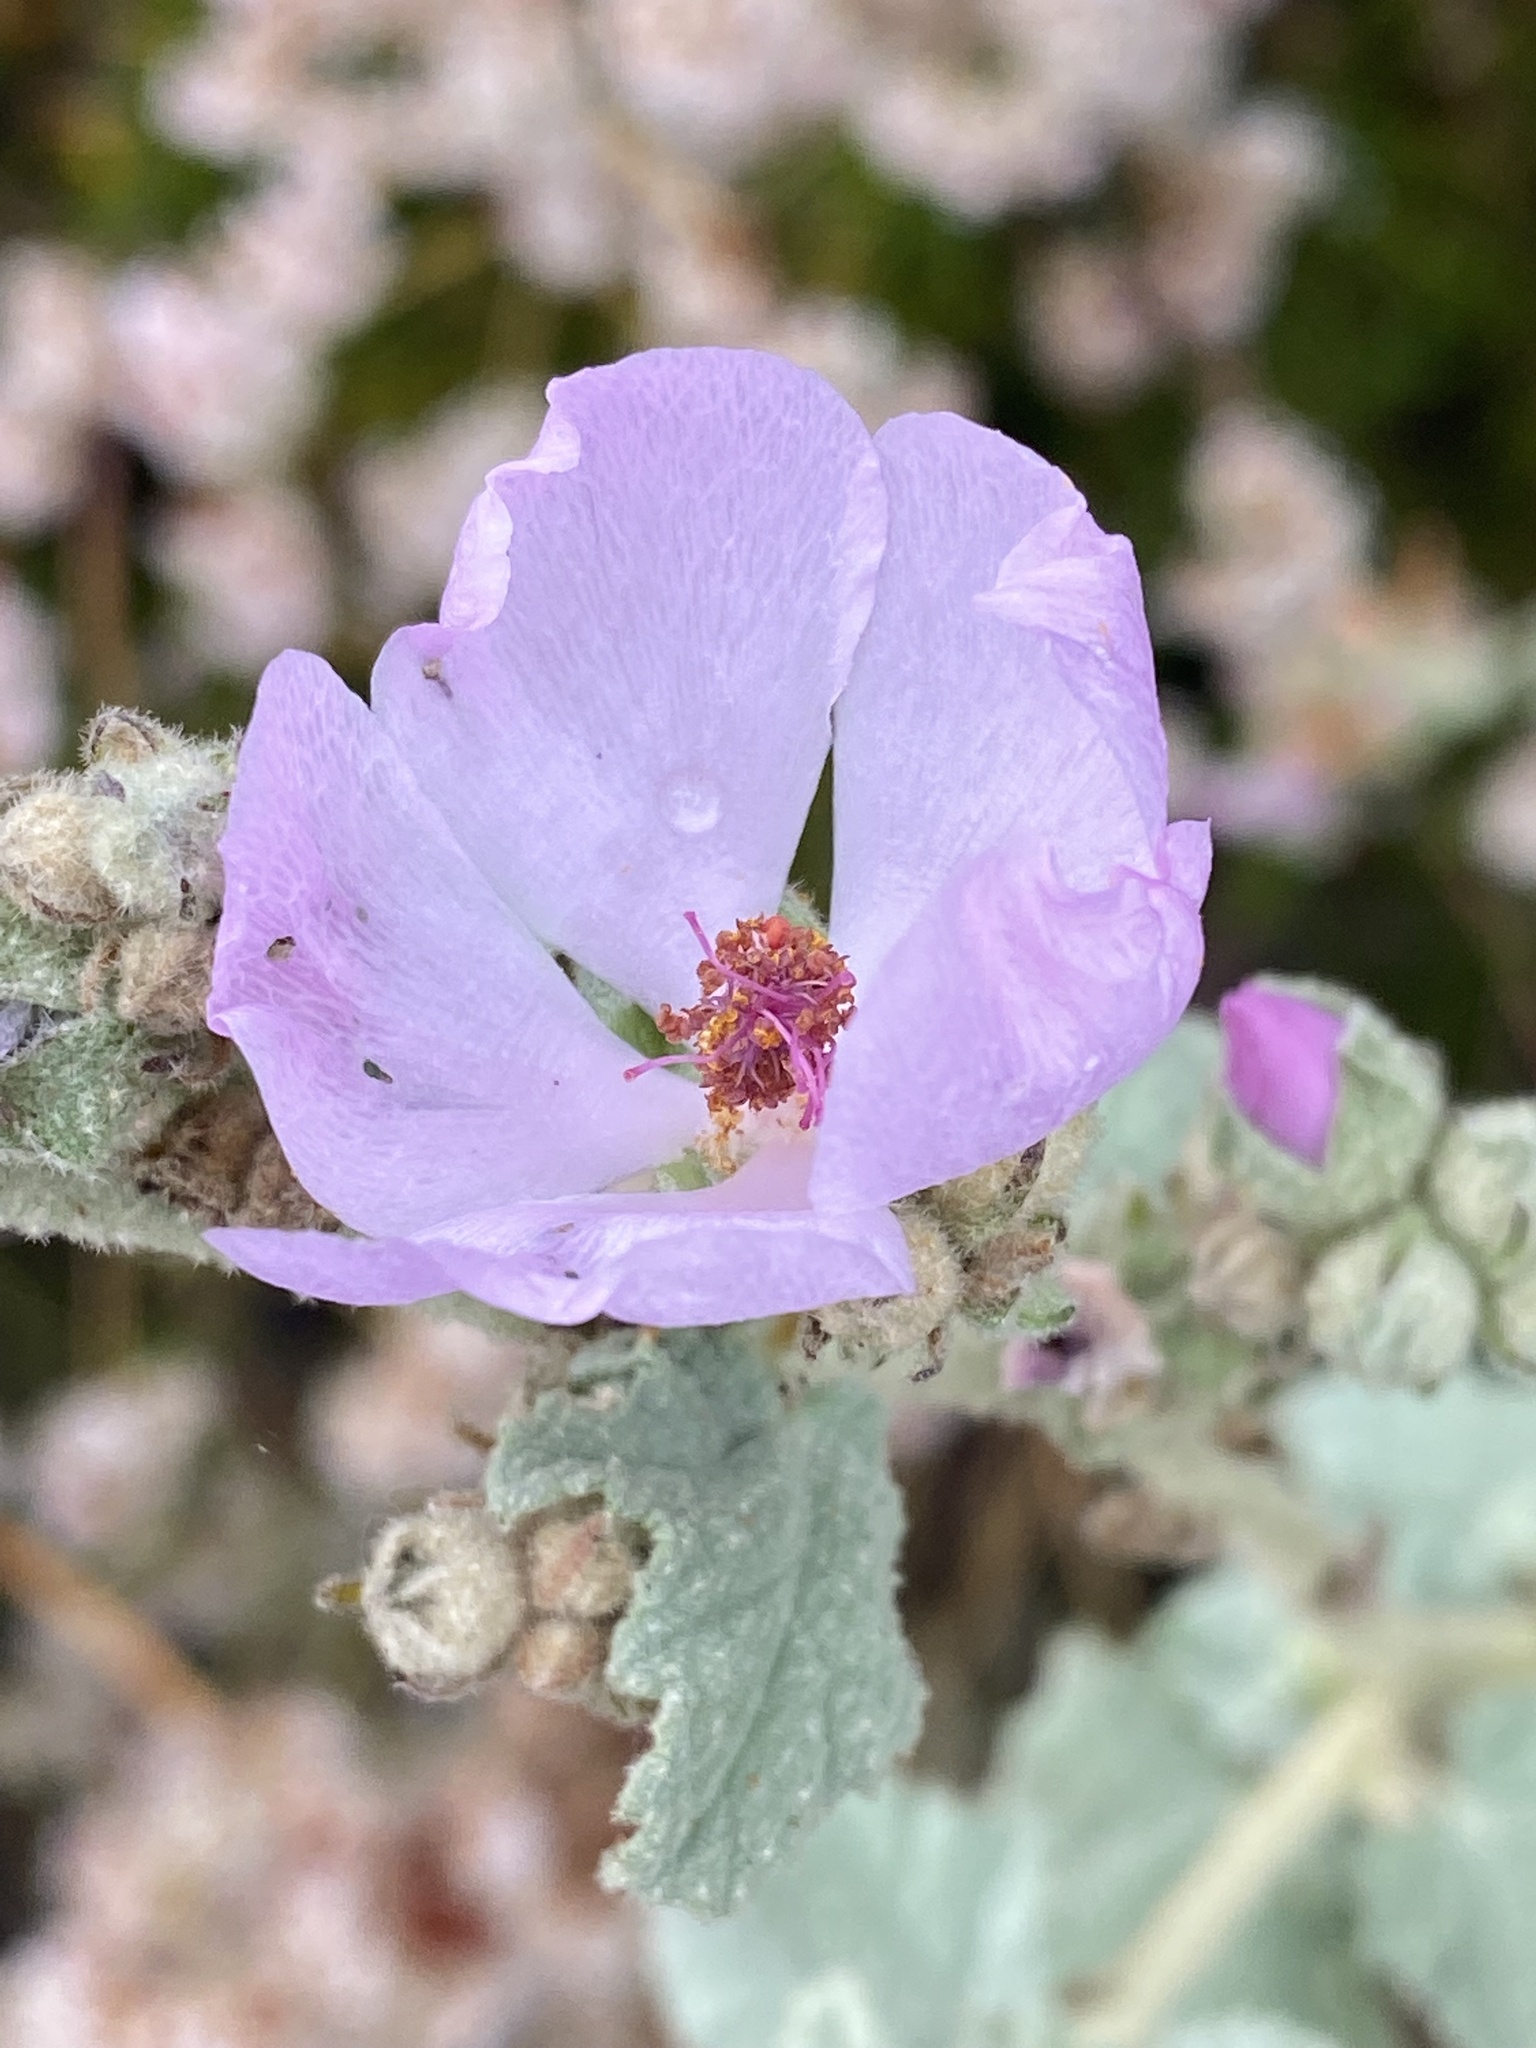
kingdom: Plantae
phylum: Tracheophyta
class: Magnoliopsida
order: Malvales
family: Malvaceae
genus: Malacothamnus
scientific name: Malacothamnus fasciculatus
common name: Sant cruz island bush-mallow
